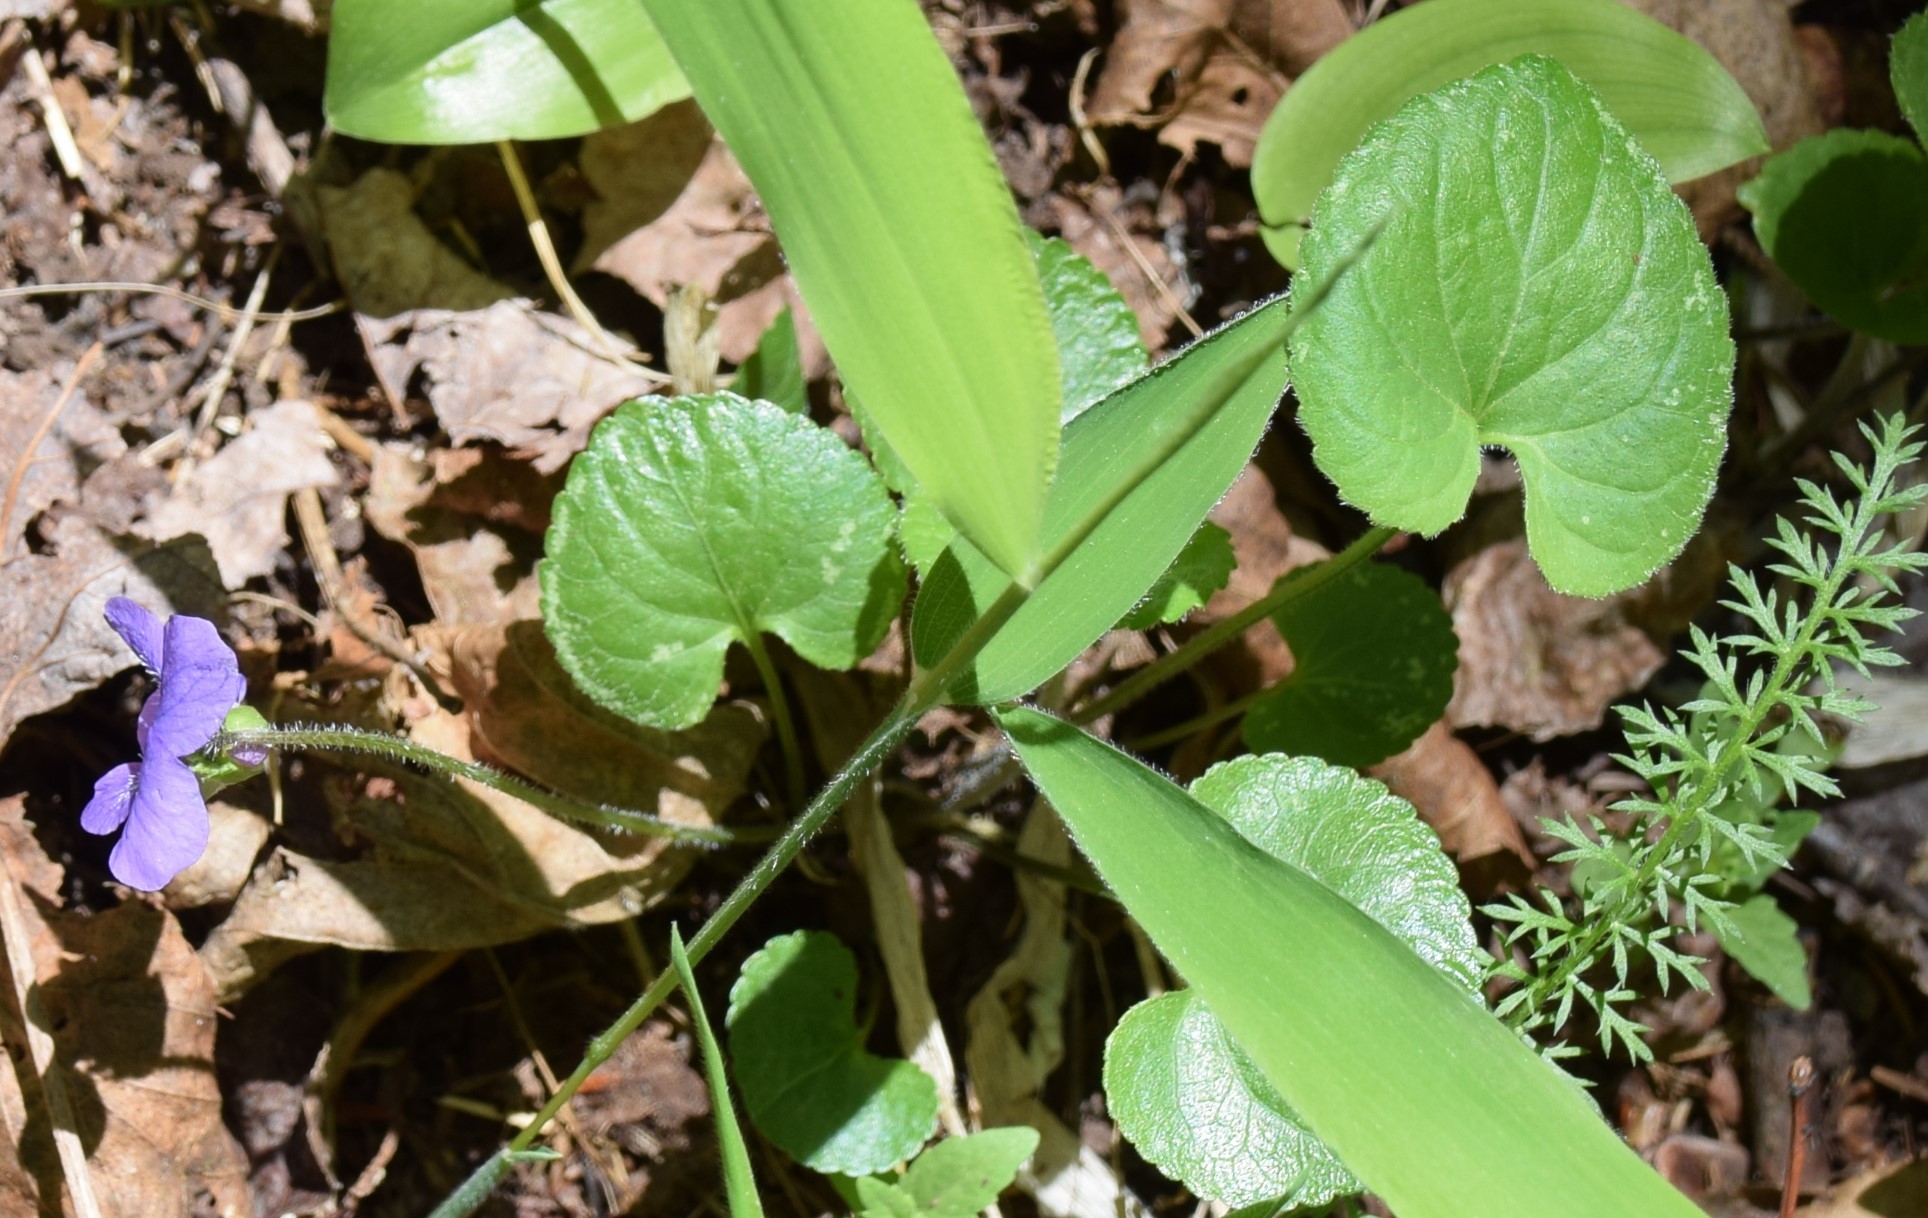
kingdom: Plantae
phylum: Tracheophyta
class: Magnoliopsida
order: Malpighiales
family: Violaceae
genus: Viola
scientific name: Viola sororia
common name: Dooryard violet
